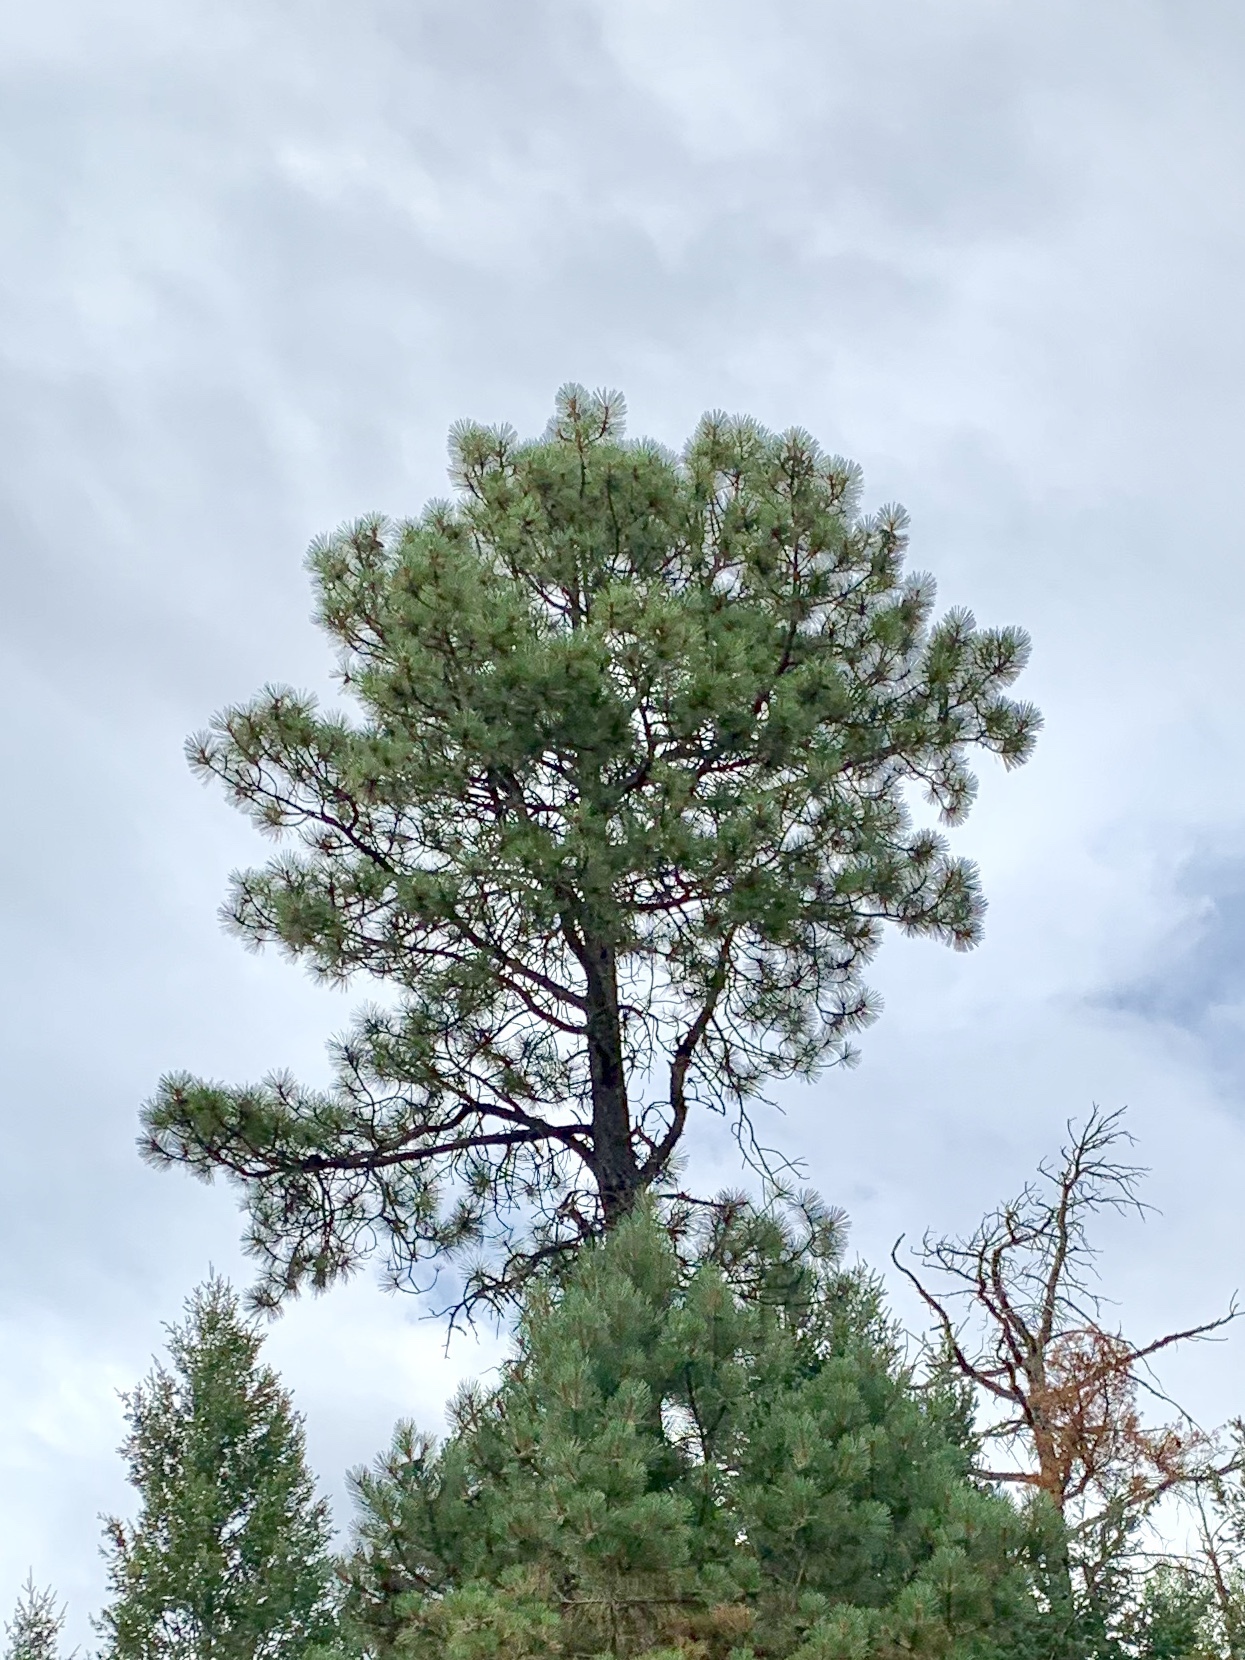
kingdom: Plantae
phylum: Tracheophyta
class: Pinopsida
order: Pinales
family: Pinaceae
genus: Pinus
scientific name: Pinus ponderosa
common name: Western yellow-pine
